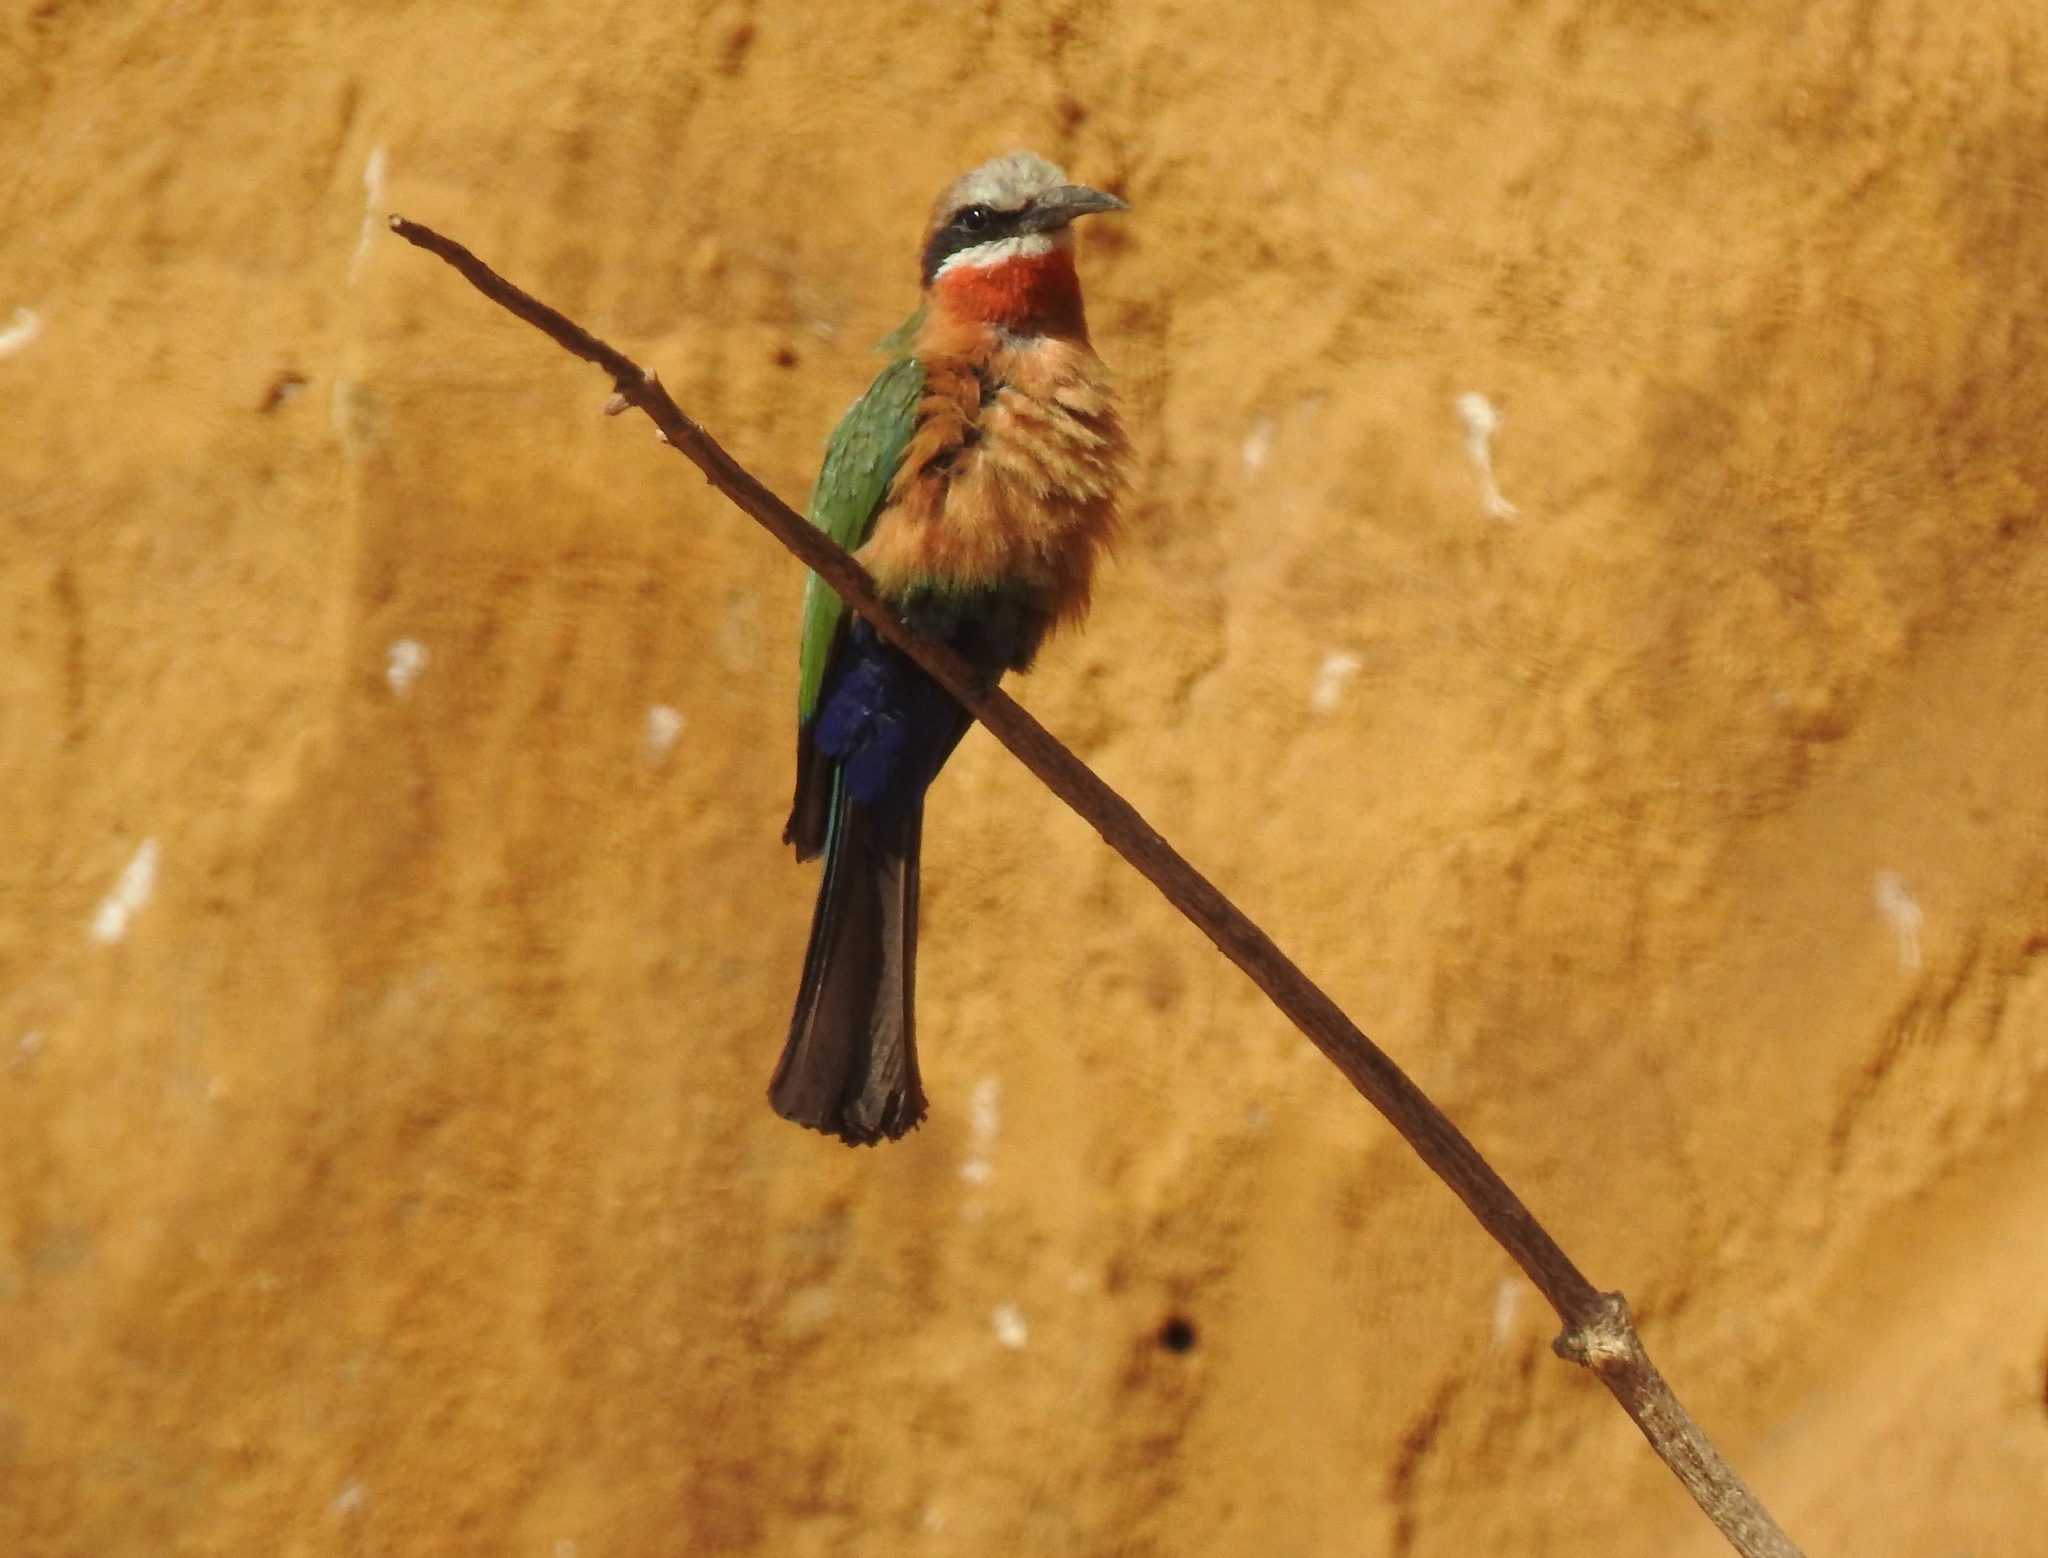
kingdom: Animalia
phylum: Chordata
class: Aves
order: Coraciiformes
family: Meropidae
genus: Merops
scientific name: Merops bullockoides
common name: White-fronted bee-eater
